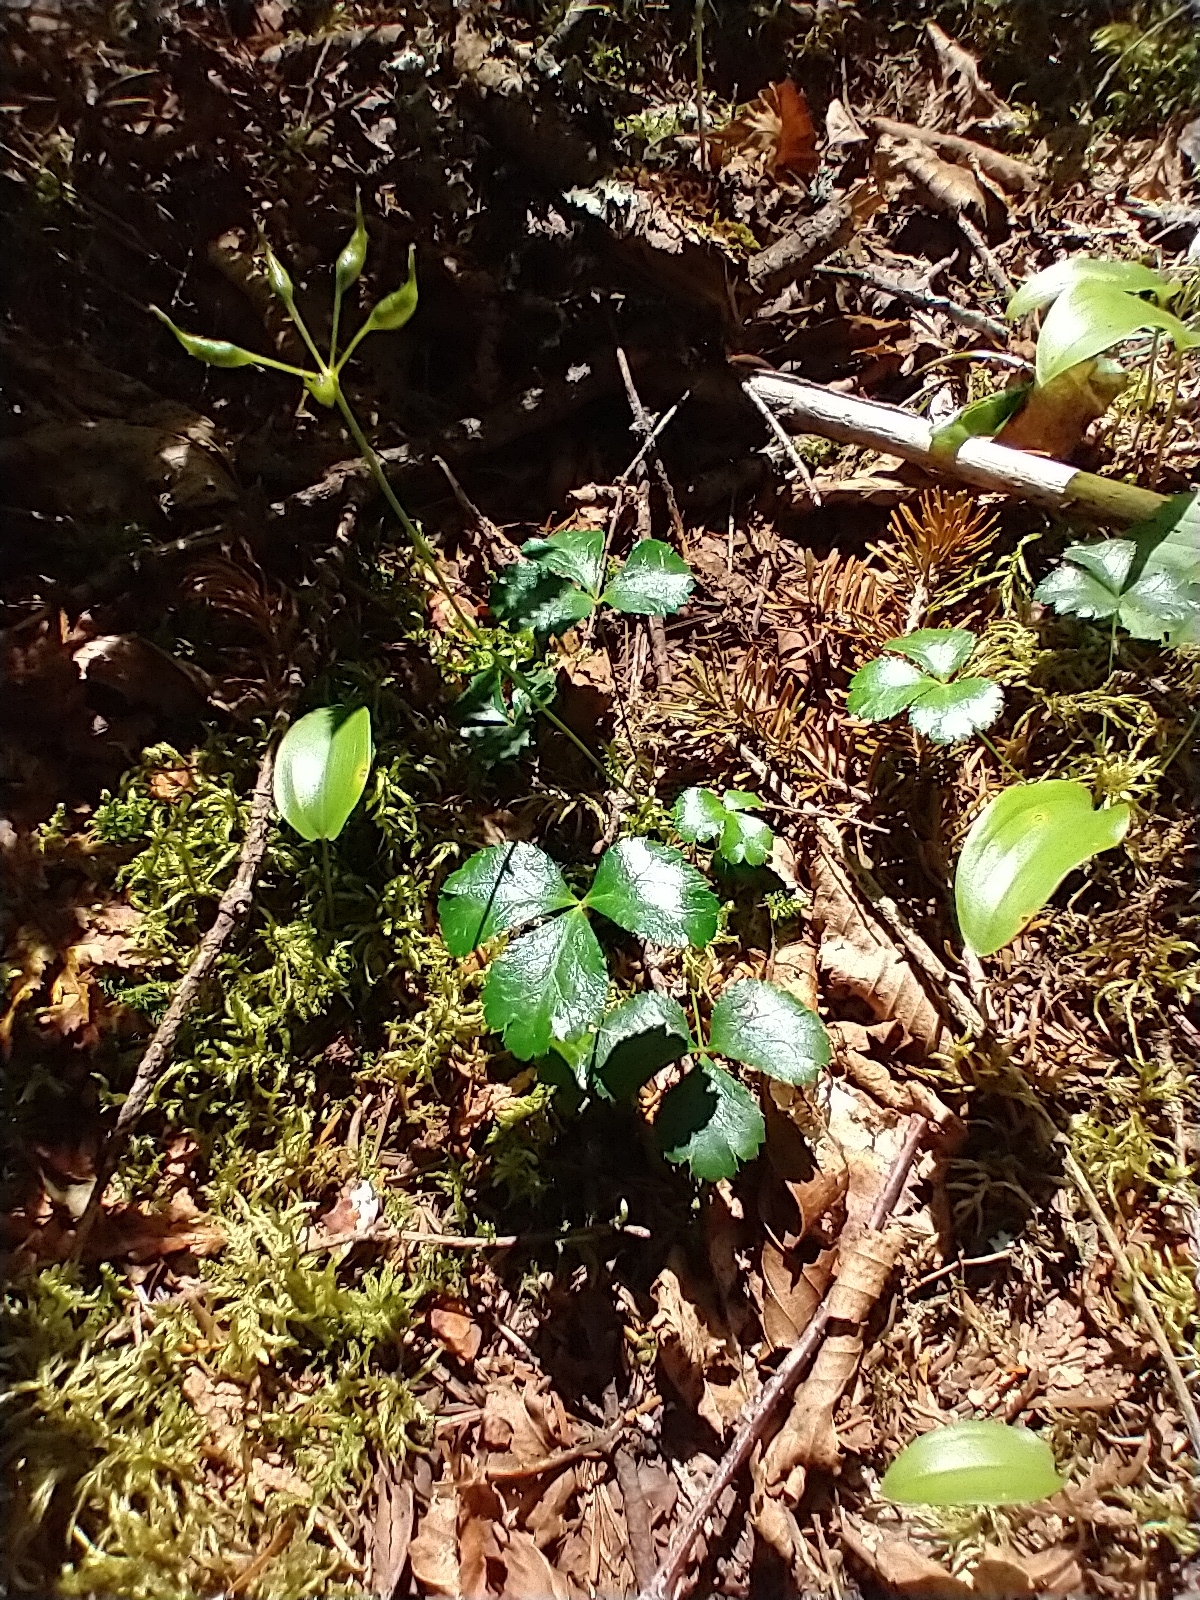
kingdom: Plantae
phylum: Tracheophyta
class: Magnoliopsida
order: Ranunculales
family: Ranunculaceae
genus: Coptis
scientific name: Coptis trifolia
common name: Canker-root
